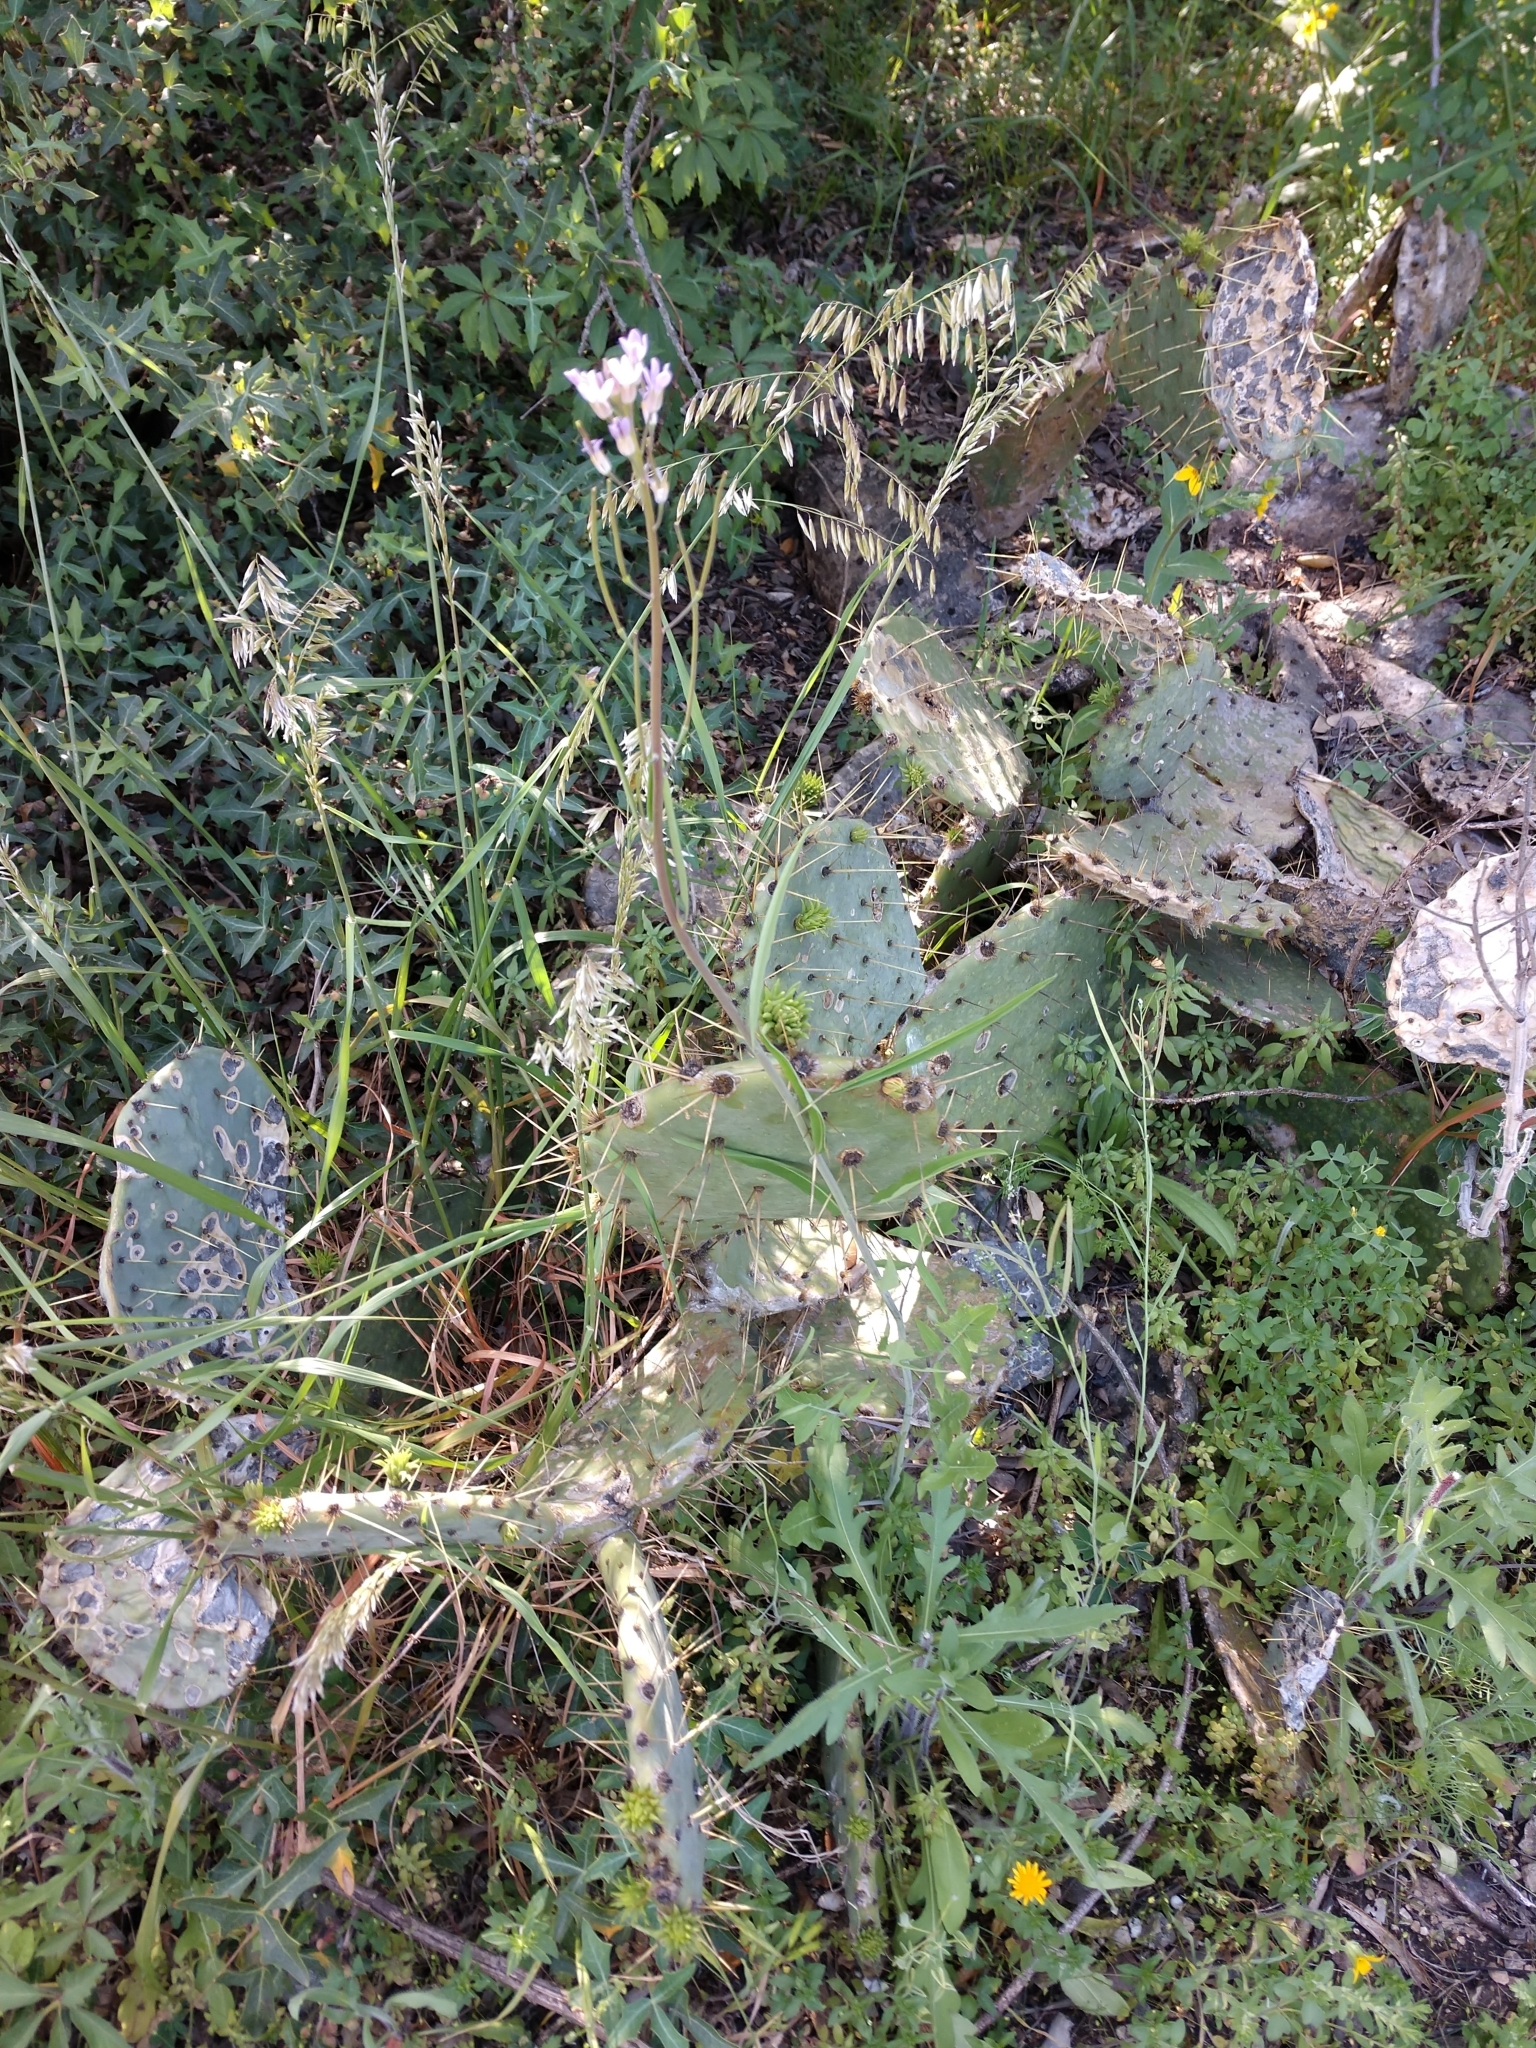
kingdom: Plantae
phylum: Tracheophyta
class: Magnoliopsida
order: Brassicales
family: Brassicaceae
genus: Streptanthus
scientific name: Streptanthus petiolaris
